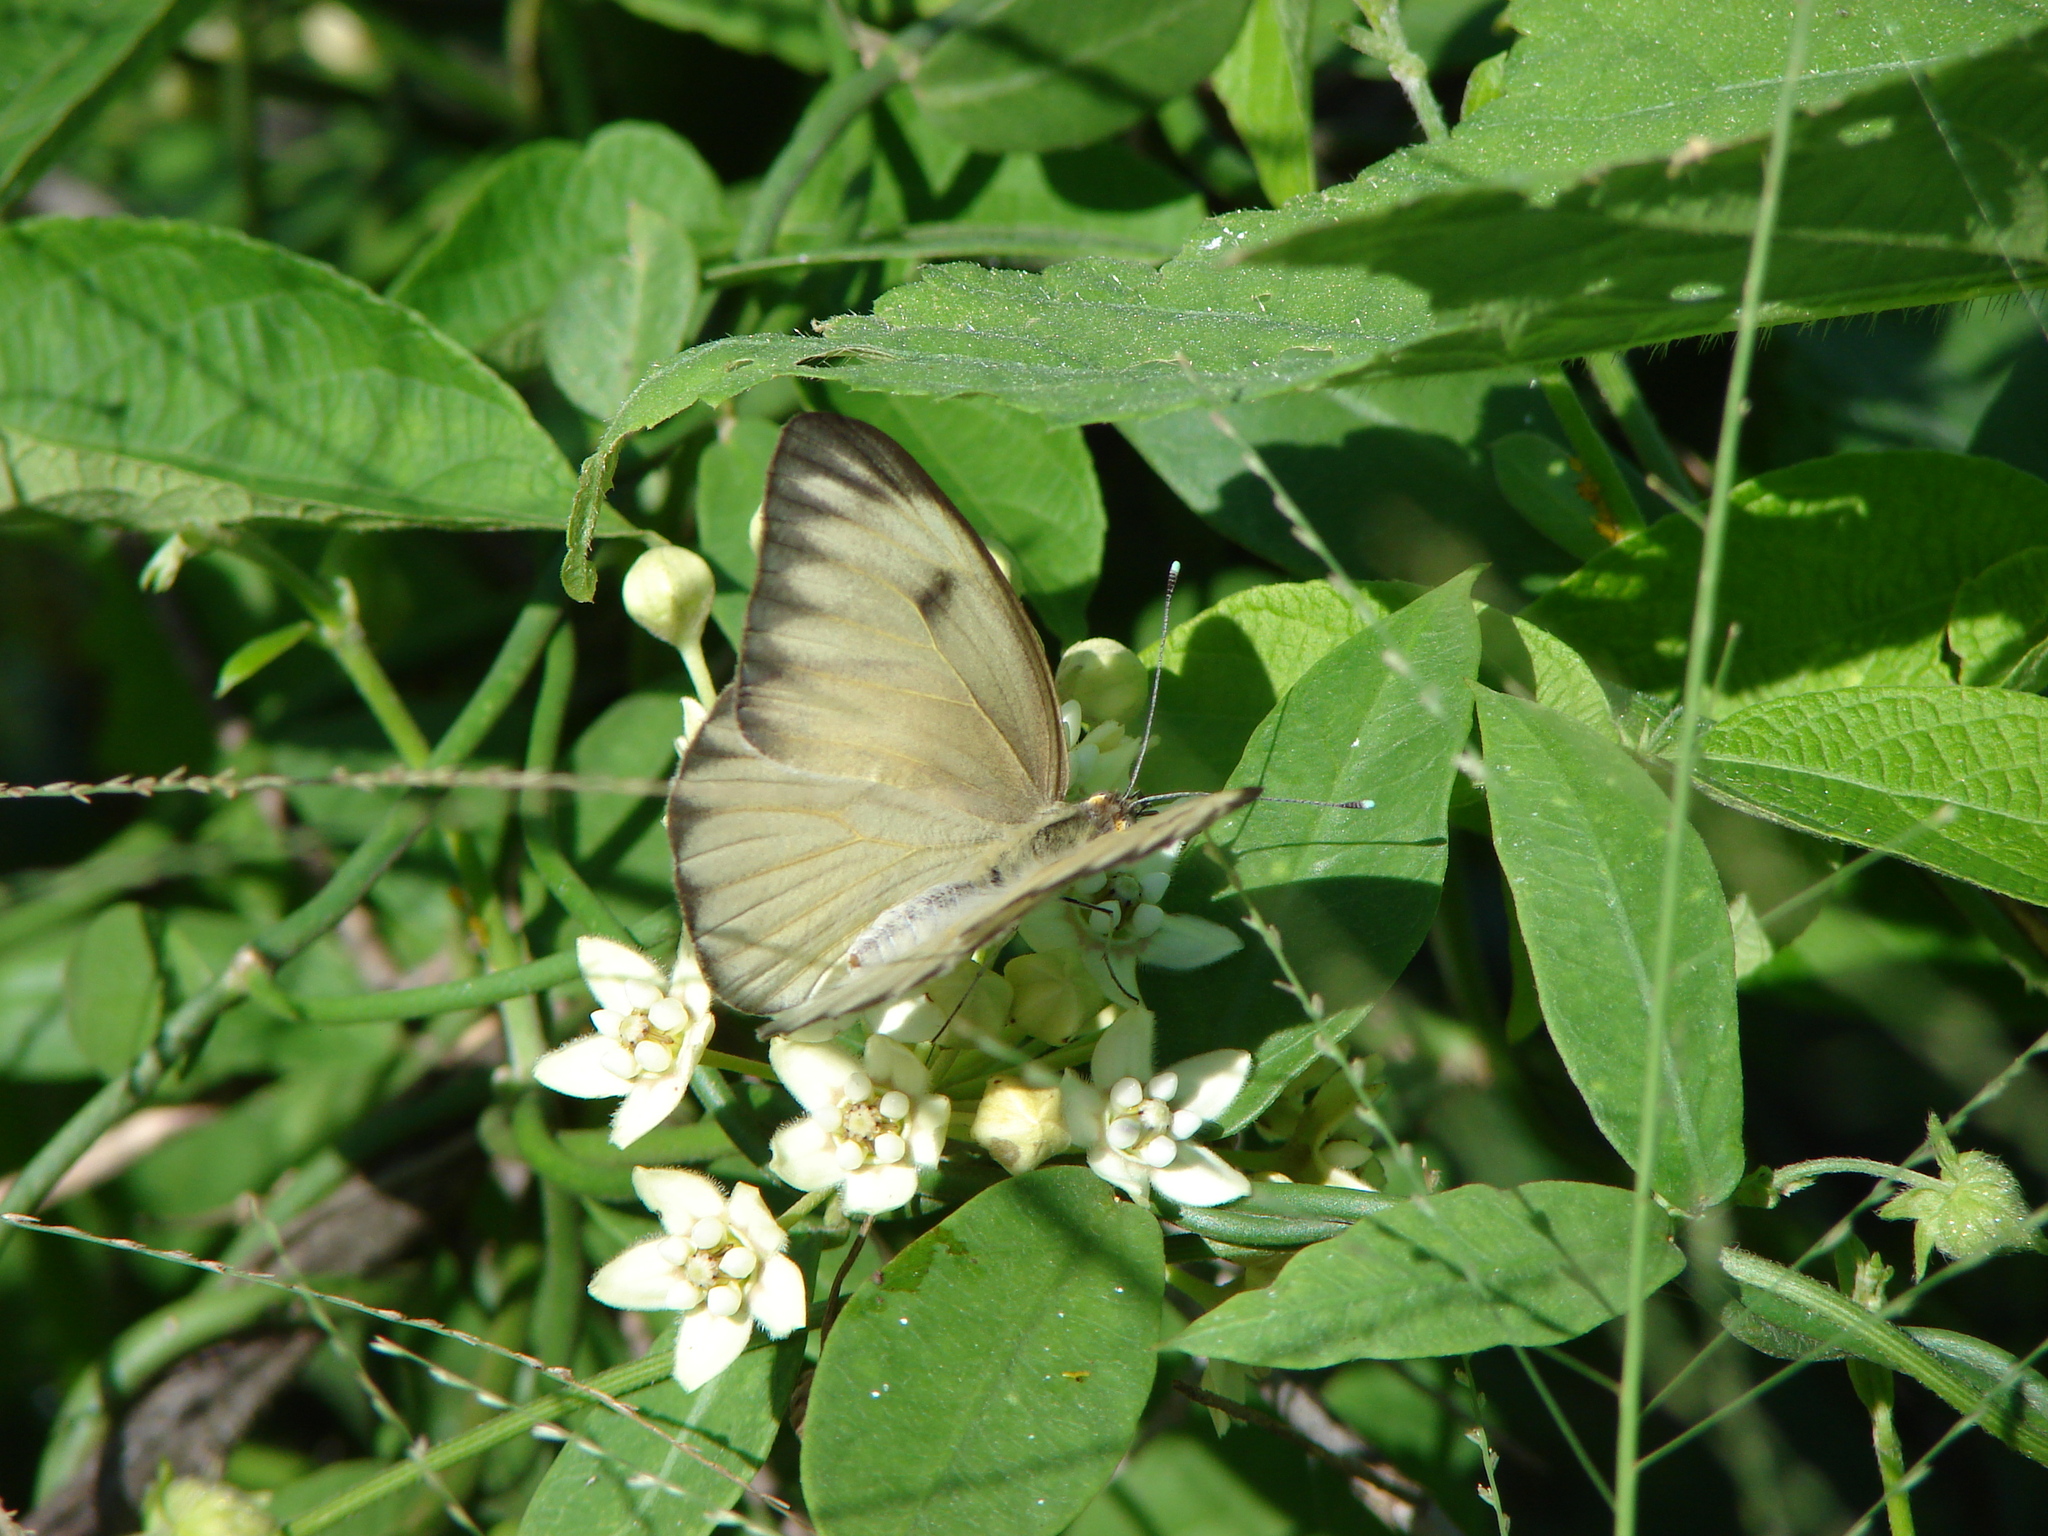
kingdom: Animalia
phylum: Arthropoda
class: Insecta
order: Lepidoptera
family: Pieridae
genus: Ascia
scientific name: Ascia monuste
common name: Great southern white
